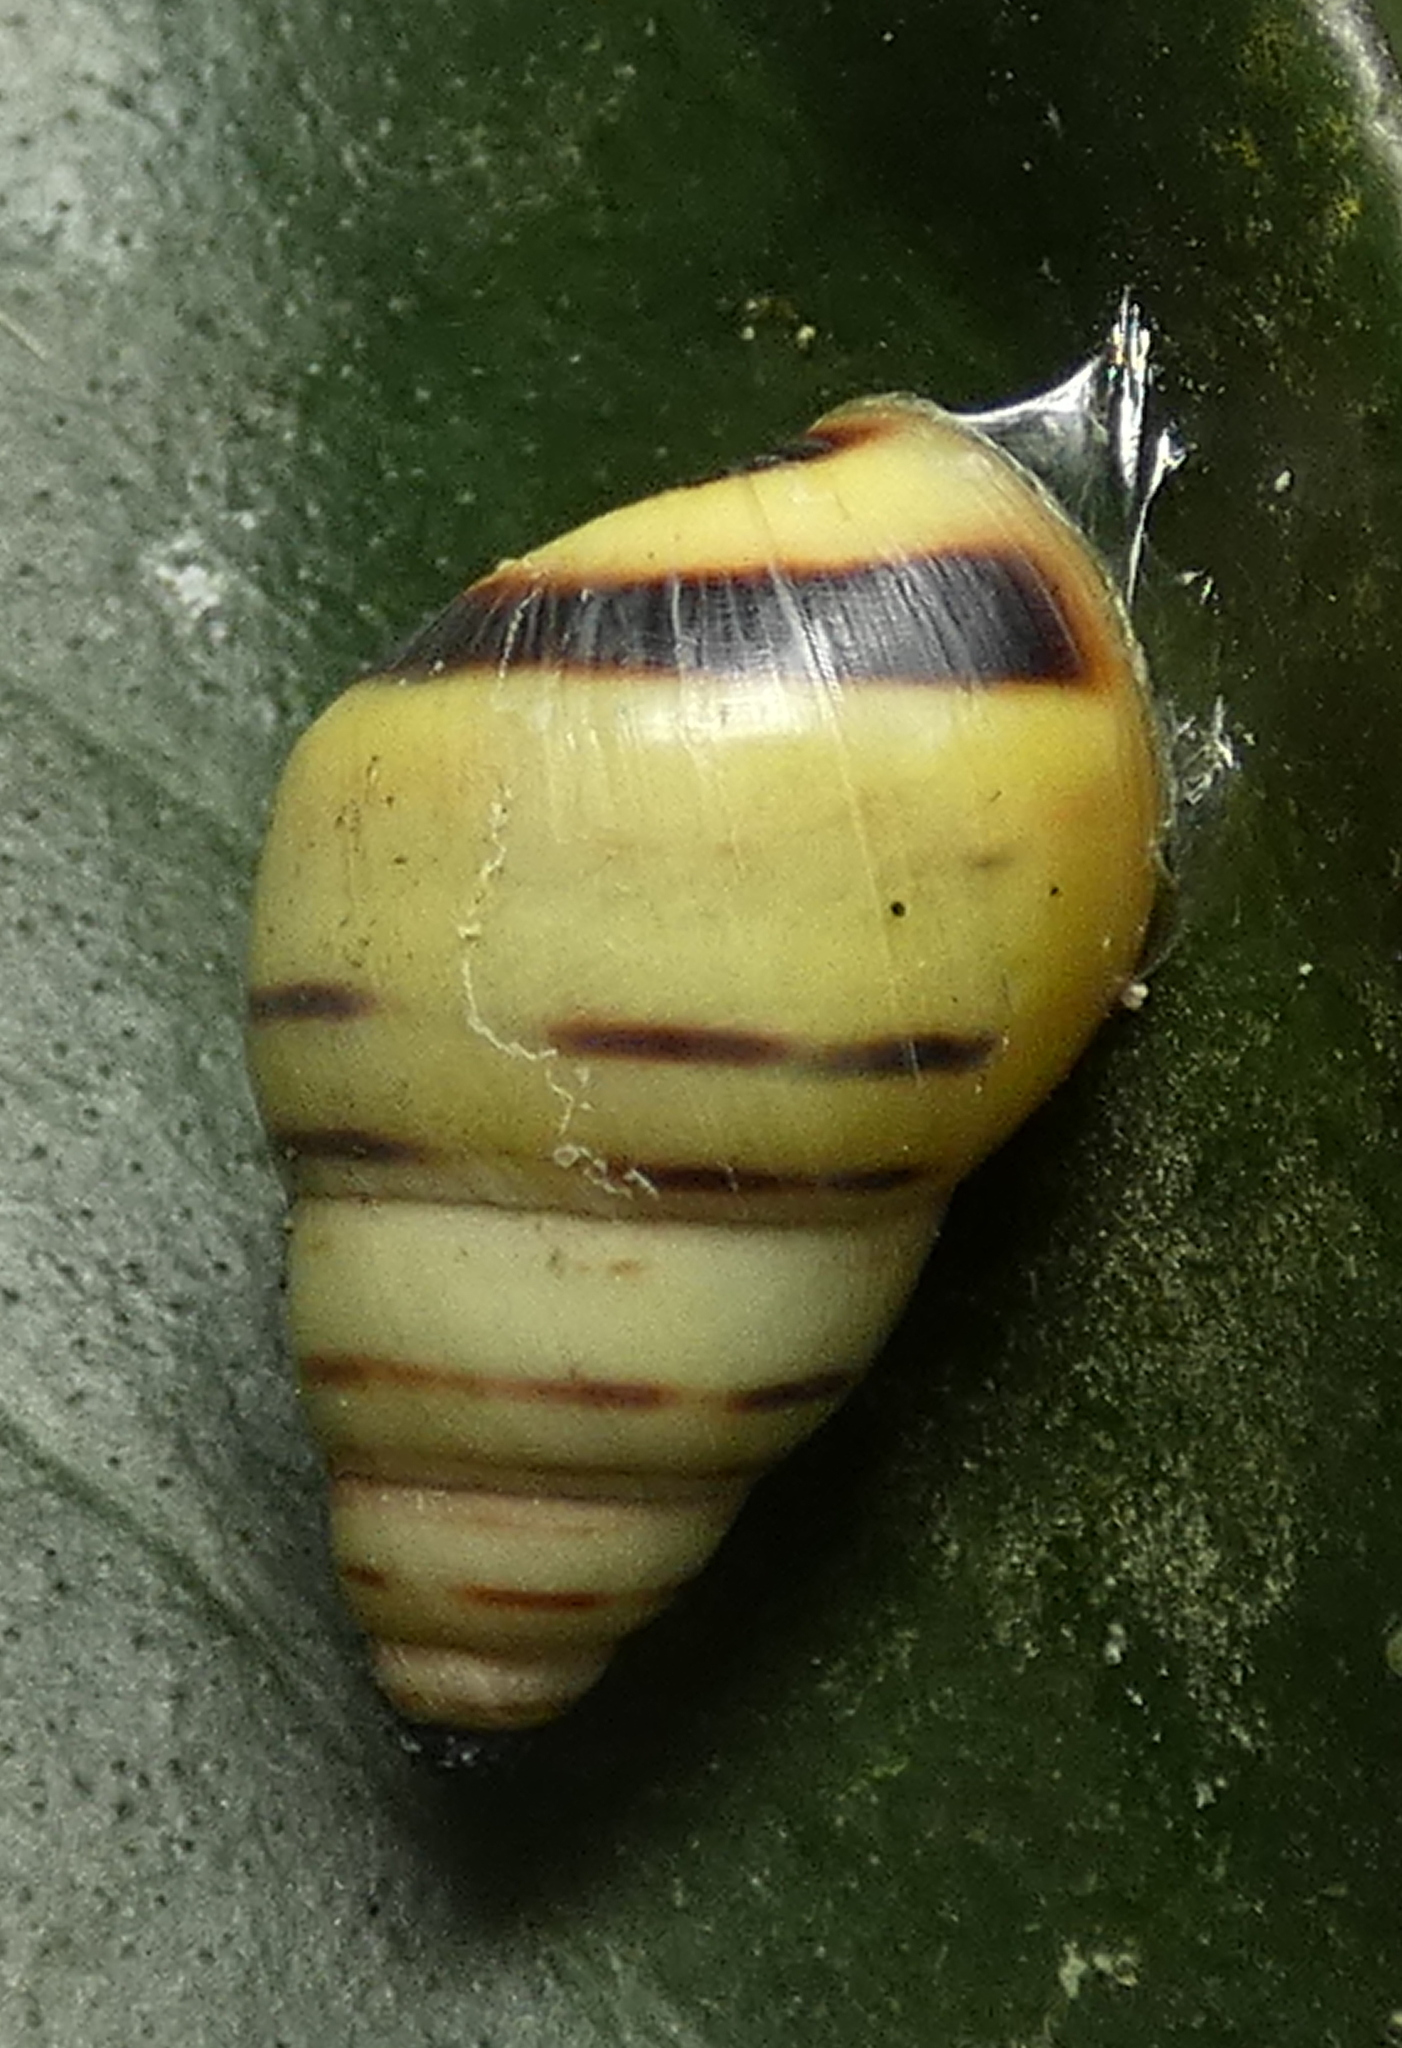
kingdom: Animalia
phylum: Mollusca
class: Gastropoda
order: Stylommatophora
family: Bulimulidae
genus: Drymaeus
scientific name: Drymaeus
